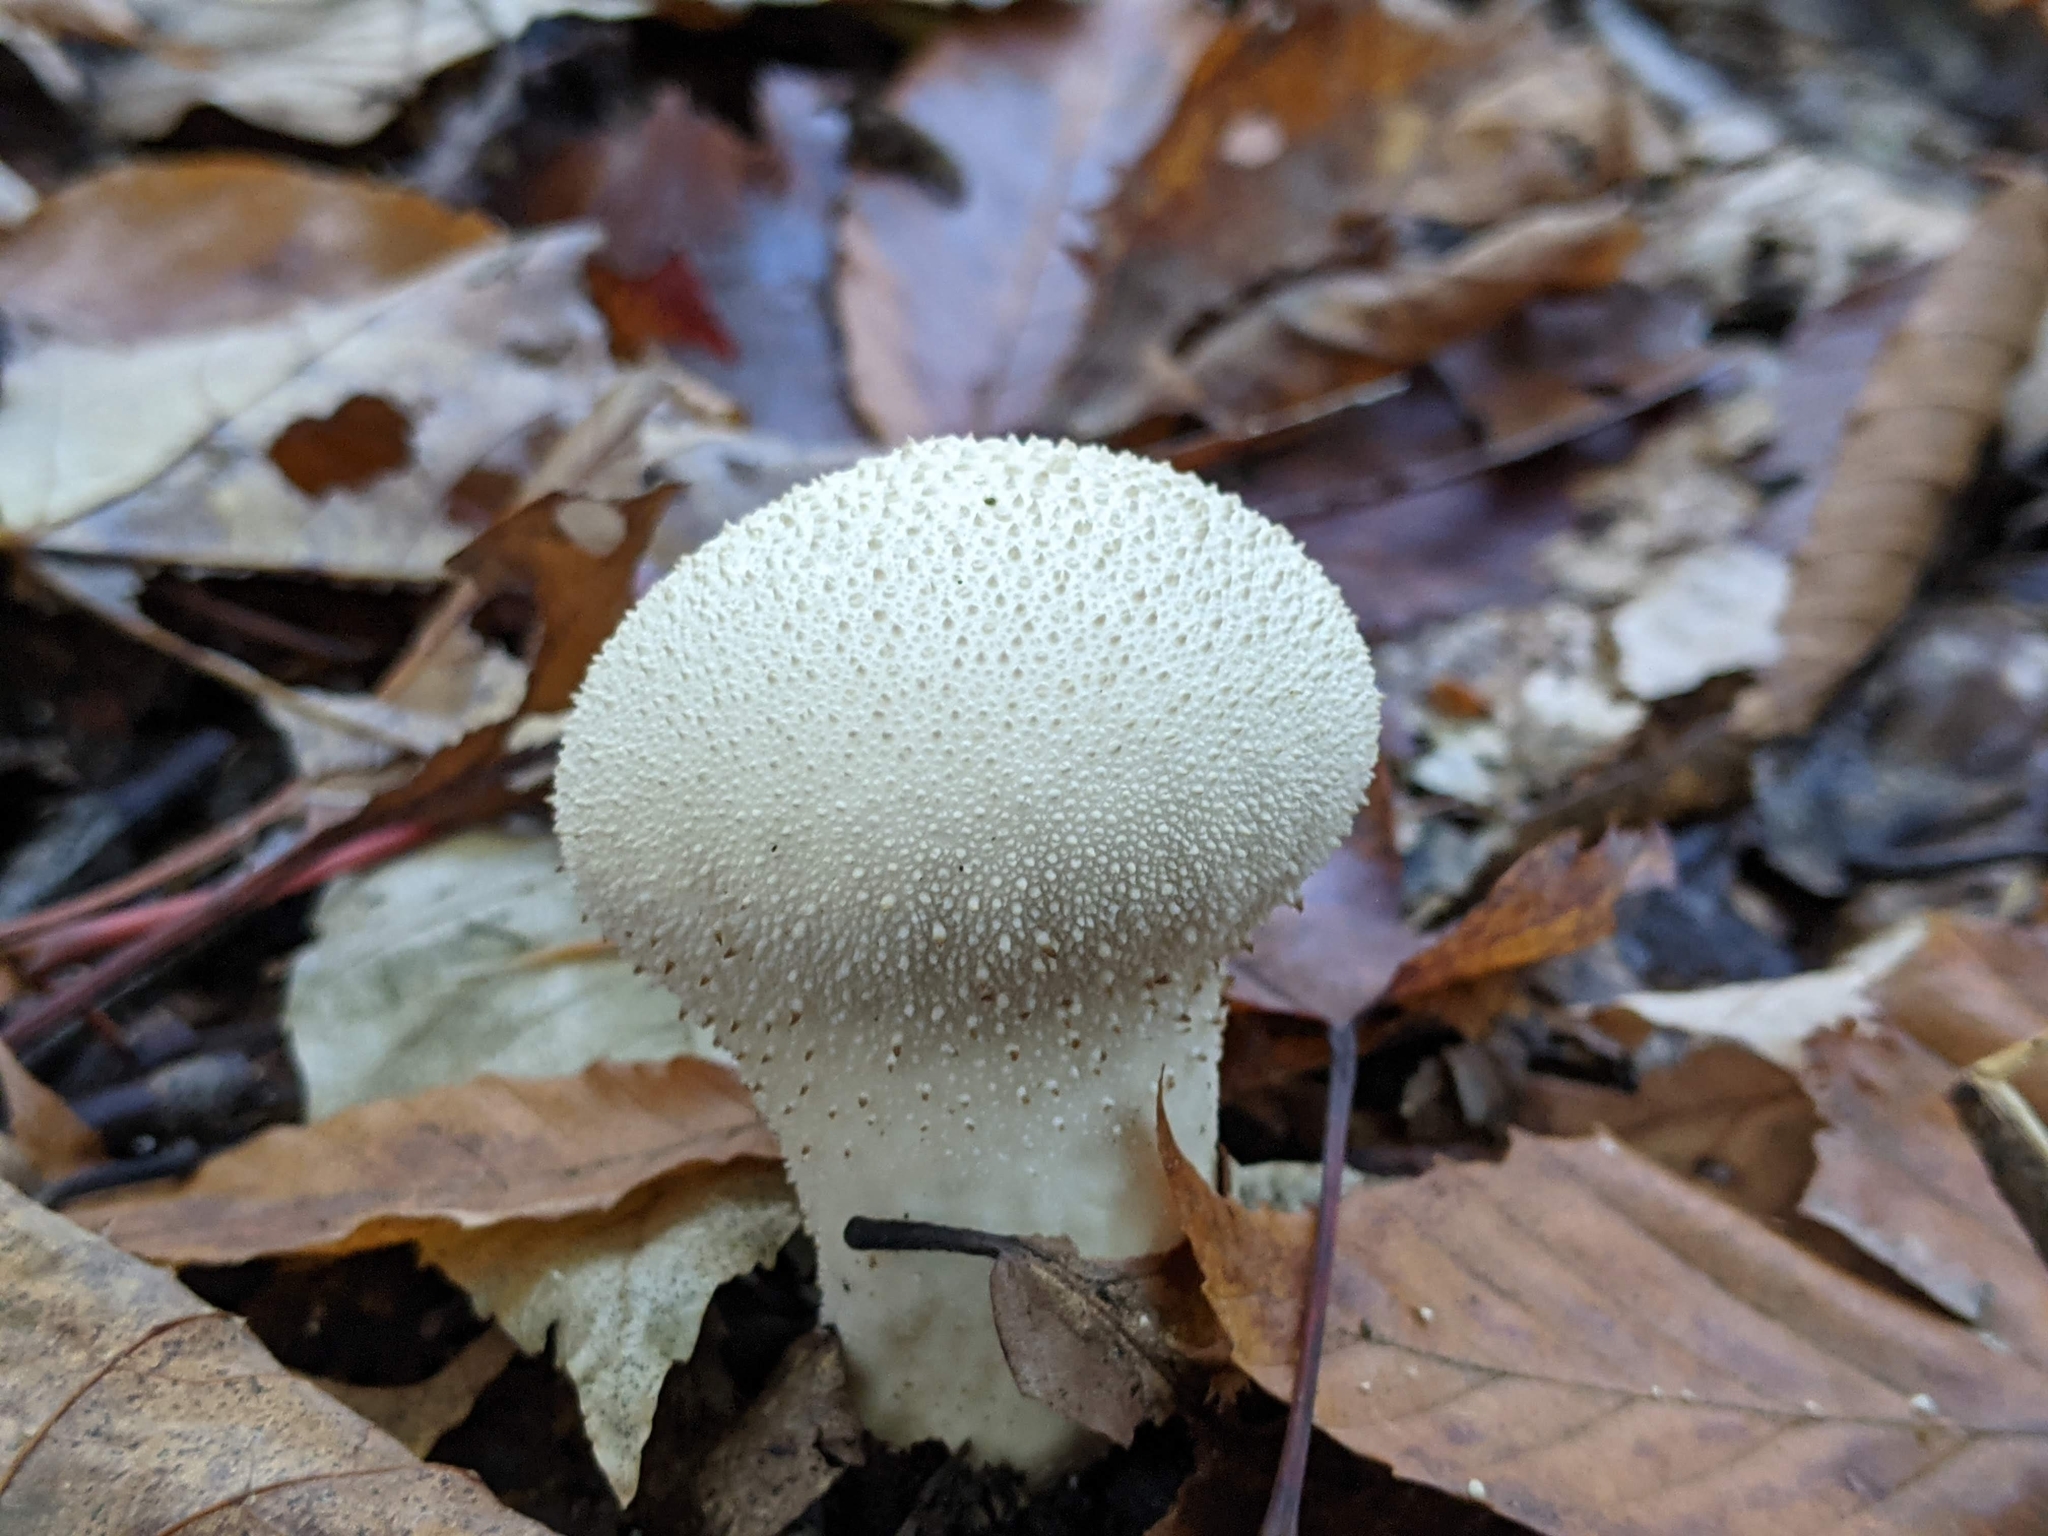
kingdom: Fungi
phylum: Basidiomycota
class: Agaricomycetes
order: Agaricales
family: Lycoperdaceae
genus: Lycoperdon
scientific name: Lycoperdon perlatum
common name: Common puffball
